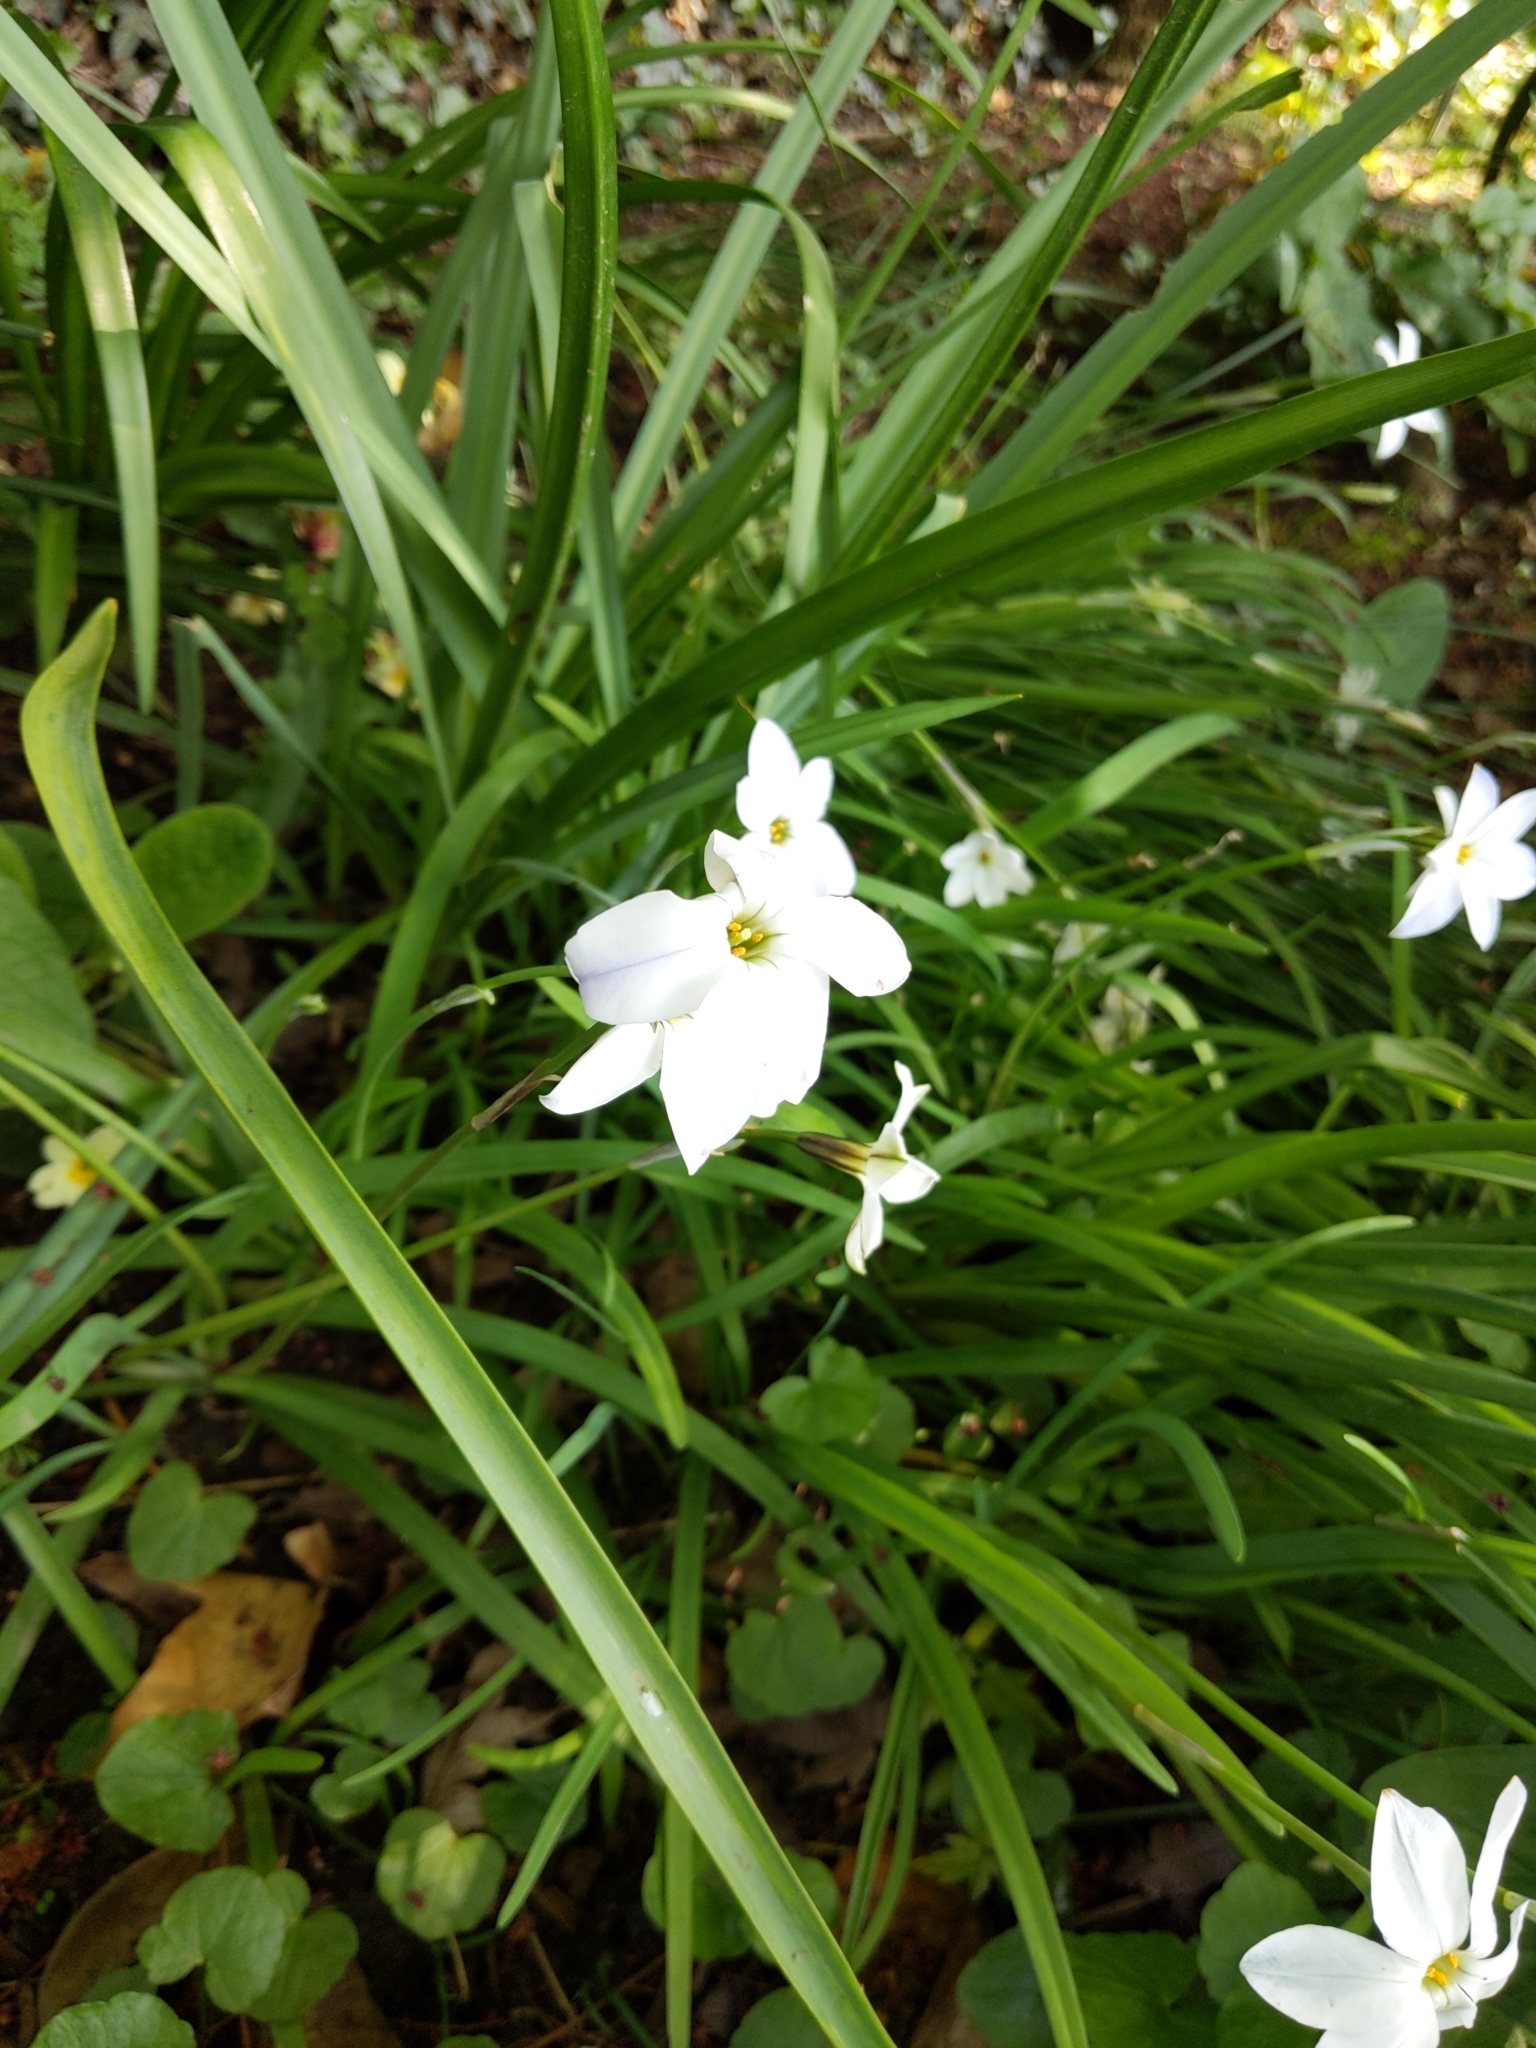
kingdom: Plantae
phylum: Tracheophyta
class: Liliopsida
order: Asparagales
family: Amaryllidaceae
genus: Ipheion
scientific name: Ipheion uniflorum
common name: Spring starflower
